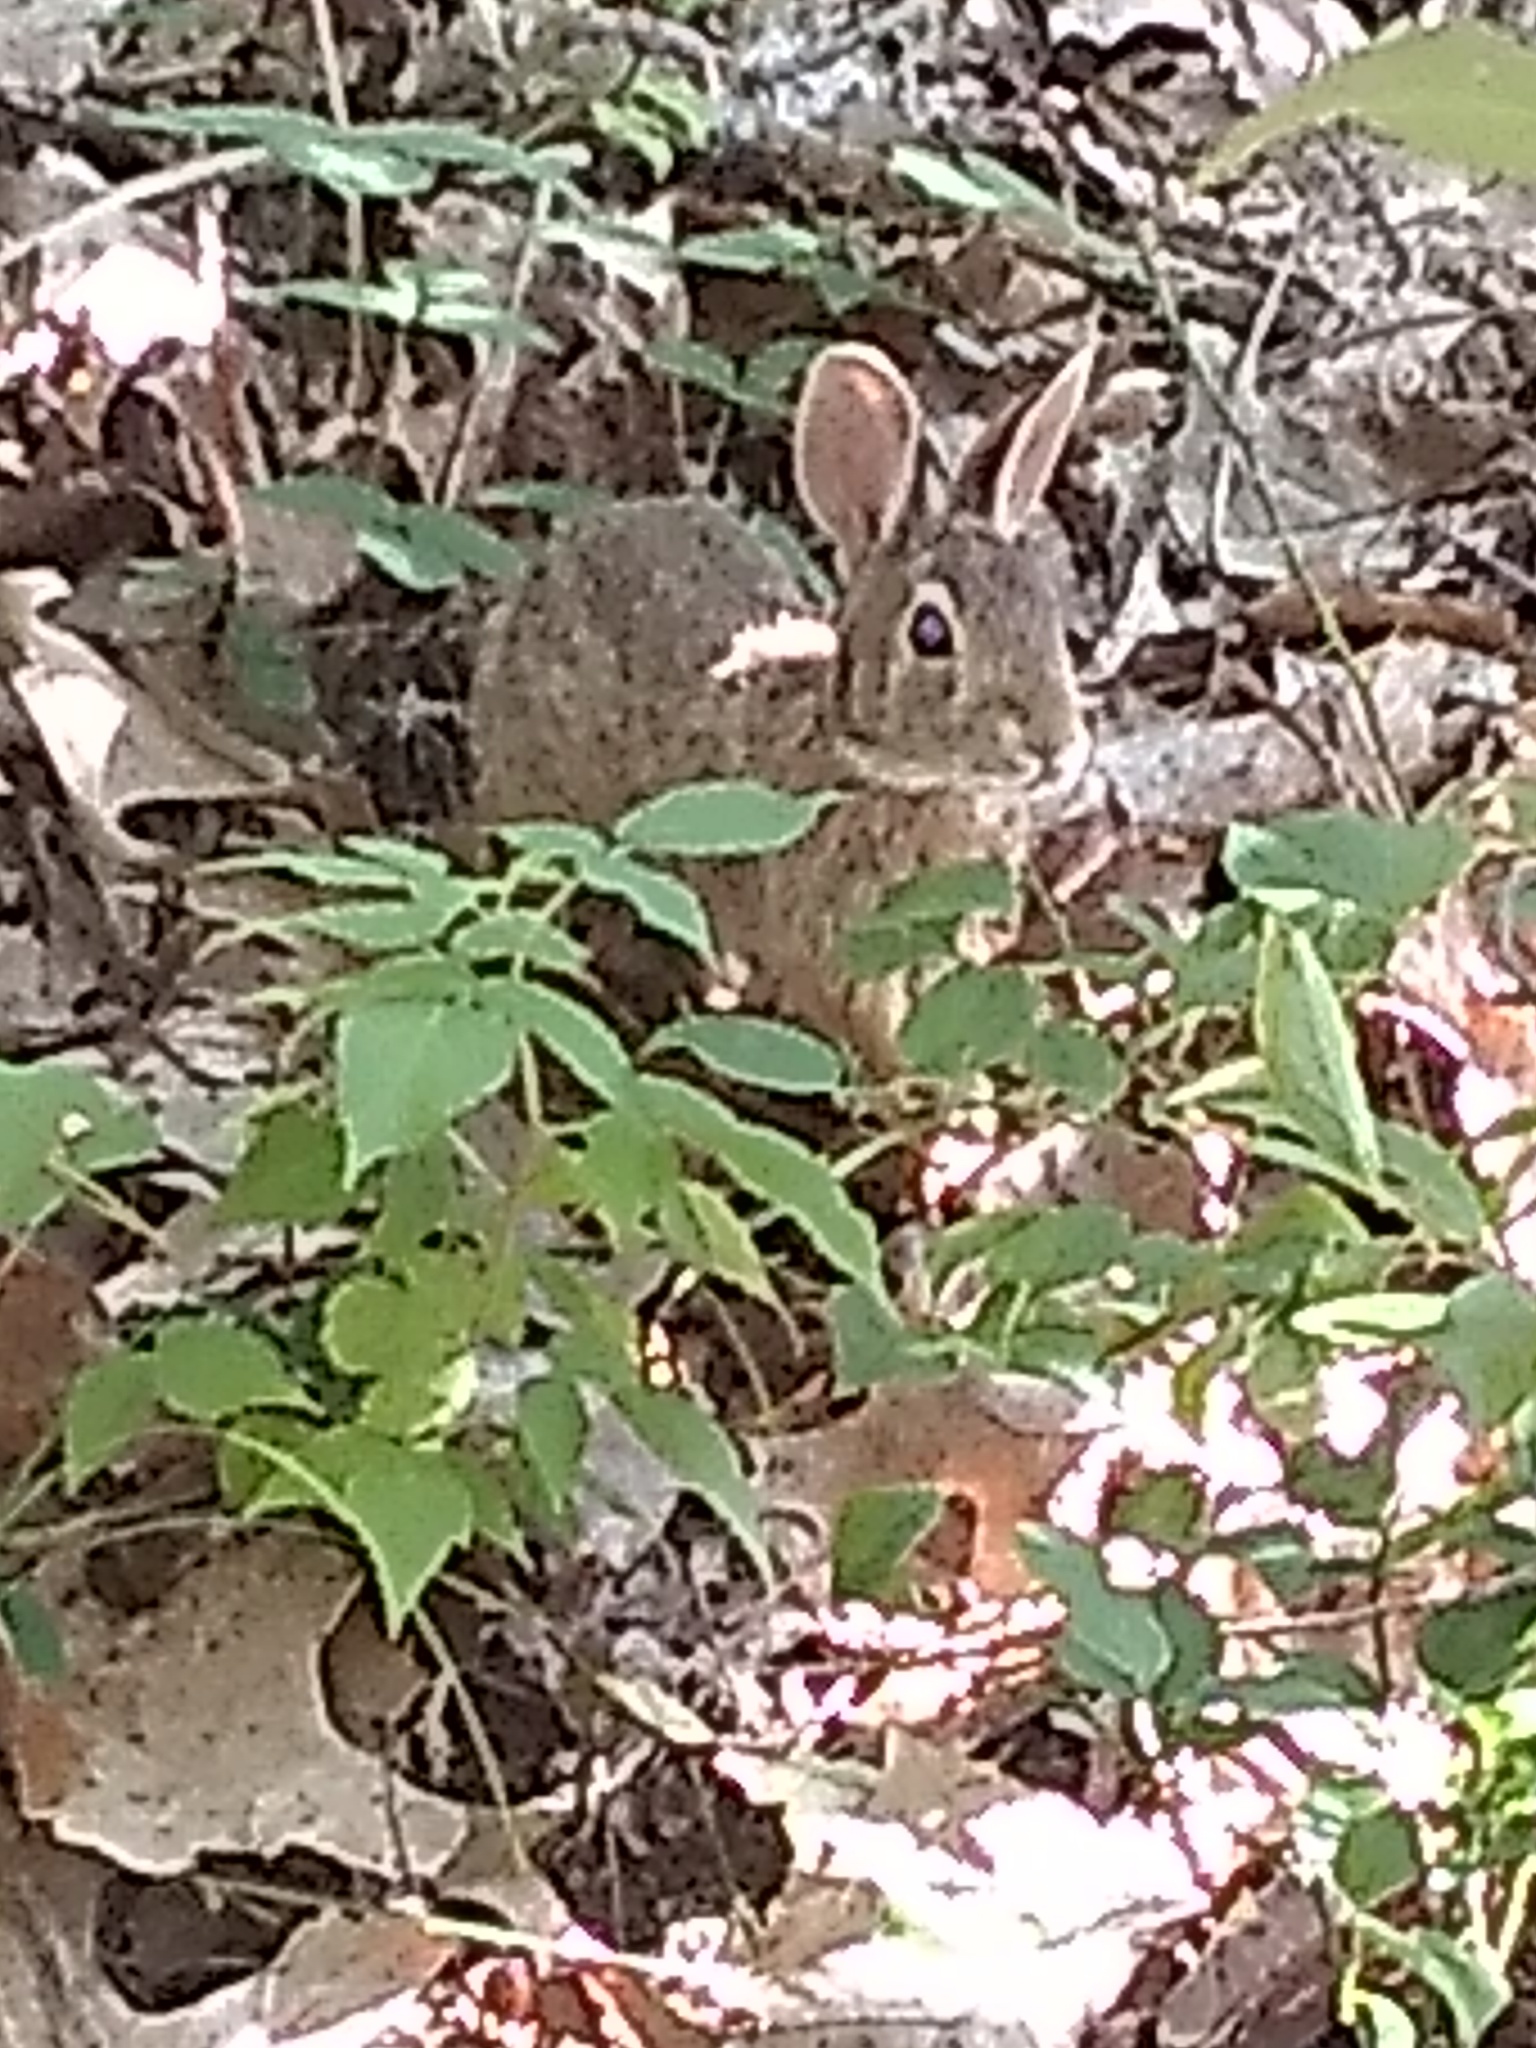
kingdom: Animalia
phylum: Chordata
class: Mammalia
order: Lagomorpha
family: Leporidae
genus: Sylvilagus
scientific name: Sylvilagus floridanus
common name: Eastern cottontail
